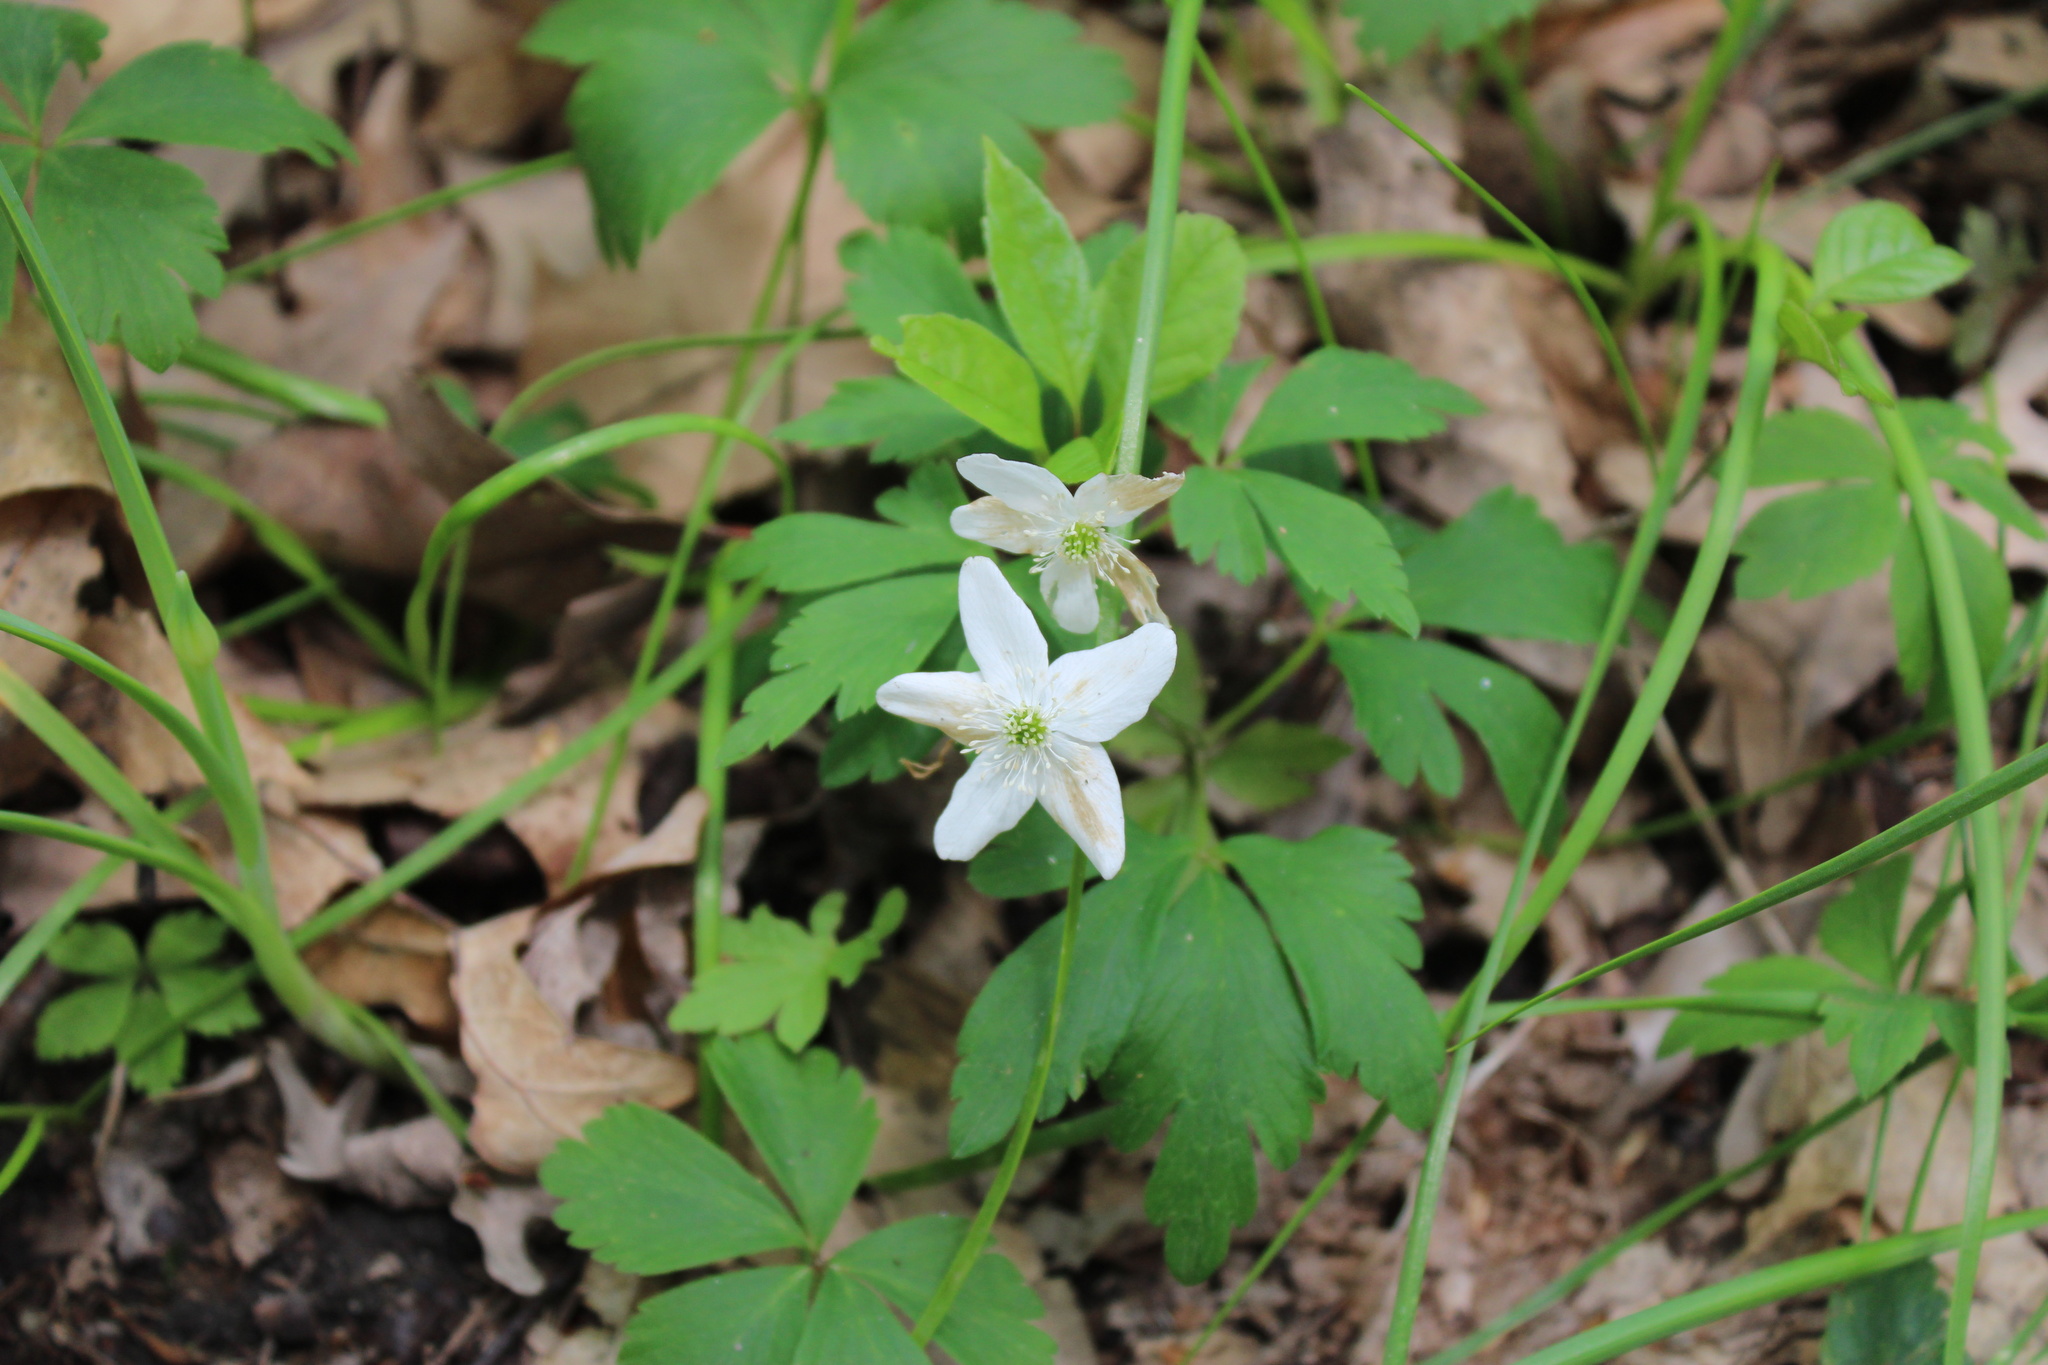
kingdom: Plantae
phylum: Tracheophyta
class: Magnoliopsida
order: Ranunculales
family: Ranunculaceae
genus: Anemone
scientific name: Anemone quinquefolia
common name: Wood anemone
